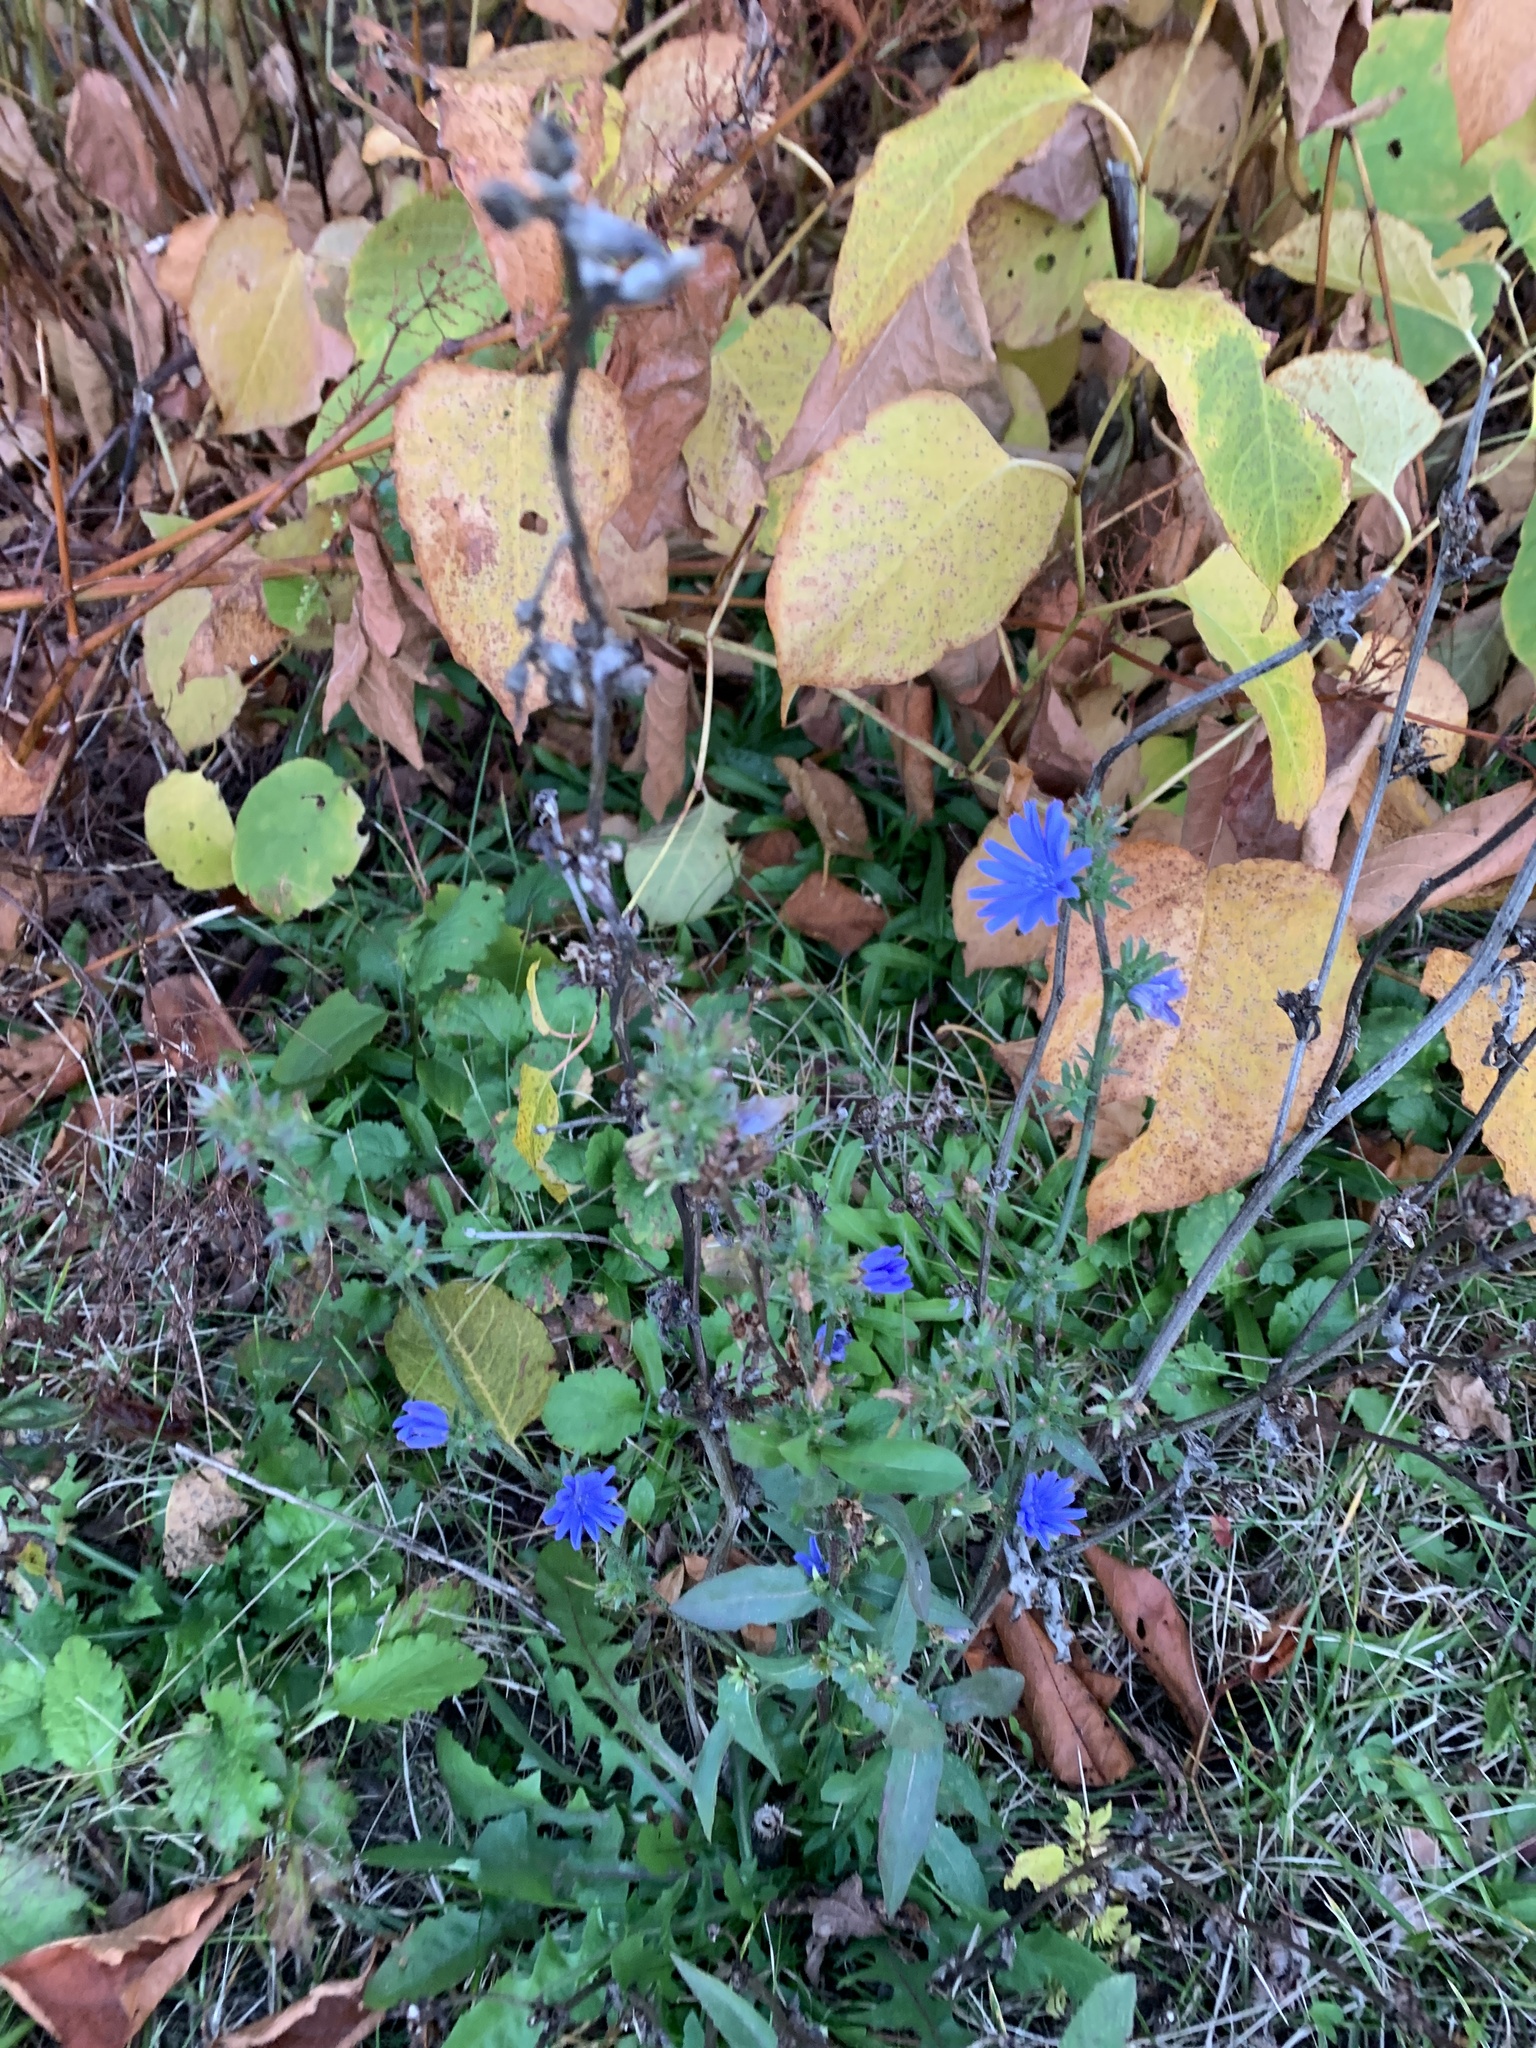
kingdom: Plantae
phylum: Tracheophyta
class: Magnoliopsida
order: Asterales
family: Asteraceae
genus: Cichorium
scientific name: Cichorium intybus
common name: Chicory
